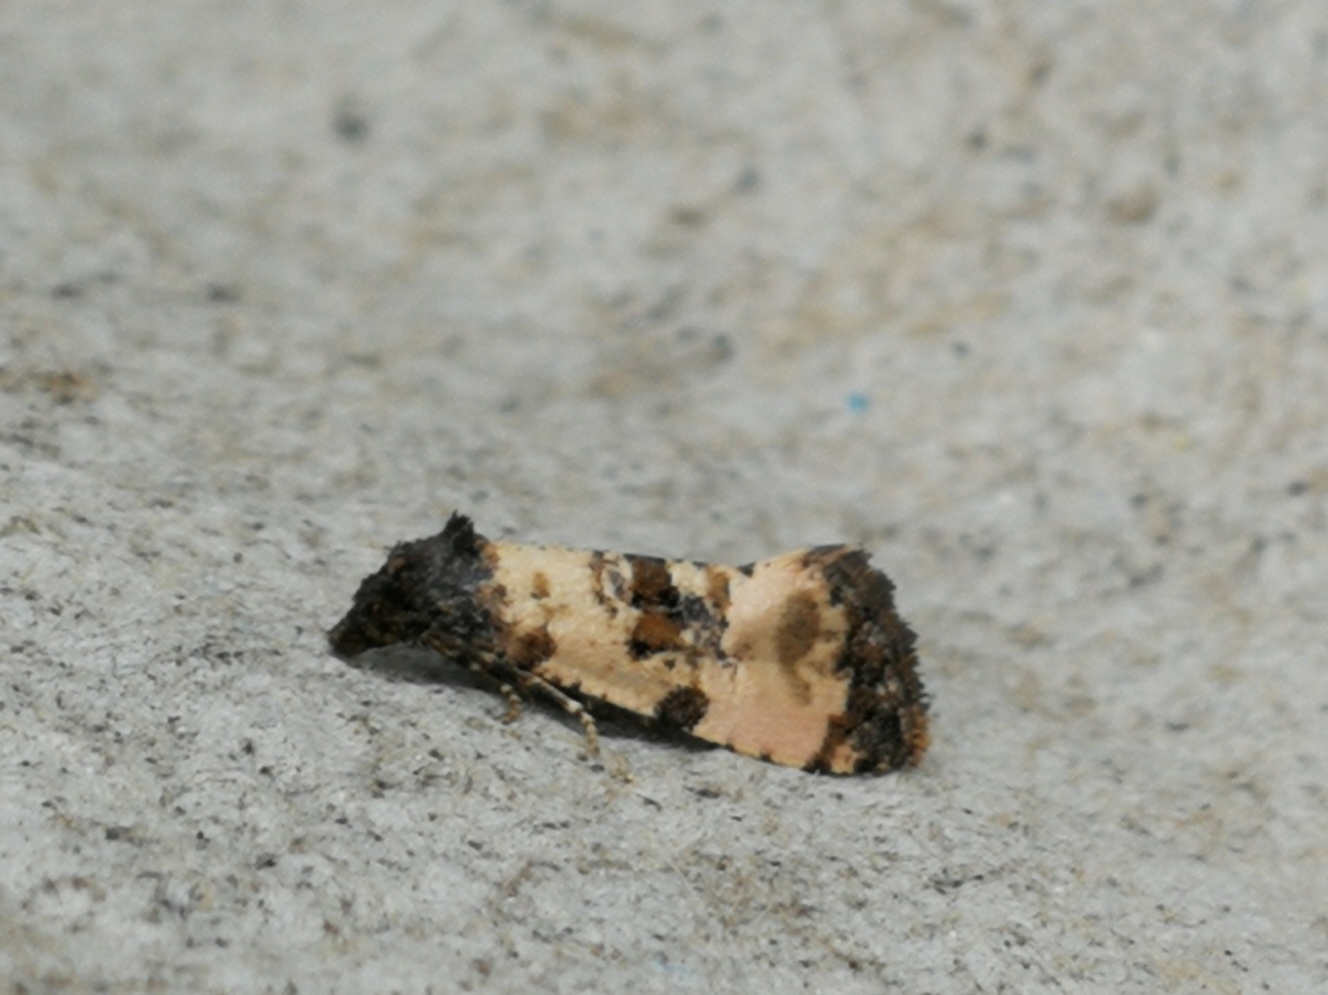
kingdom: Animalia
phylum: Arthropoda
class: Insecta
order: Lepidoptera
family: Tortricidae
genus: Cochylis
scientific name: Cochylis atricapitana
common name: Tortricid moth
